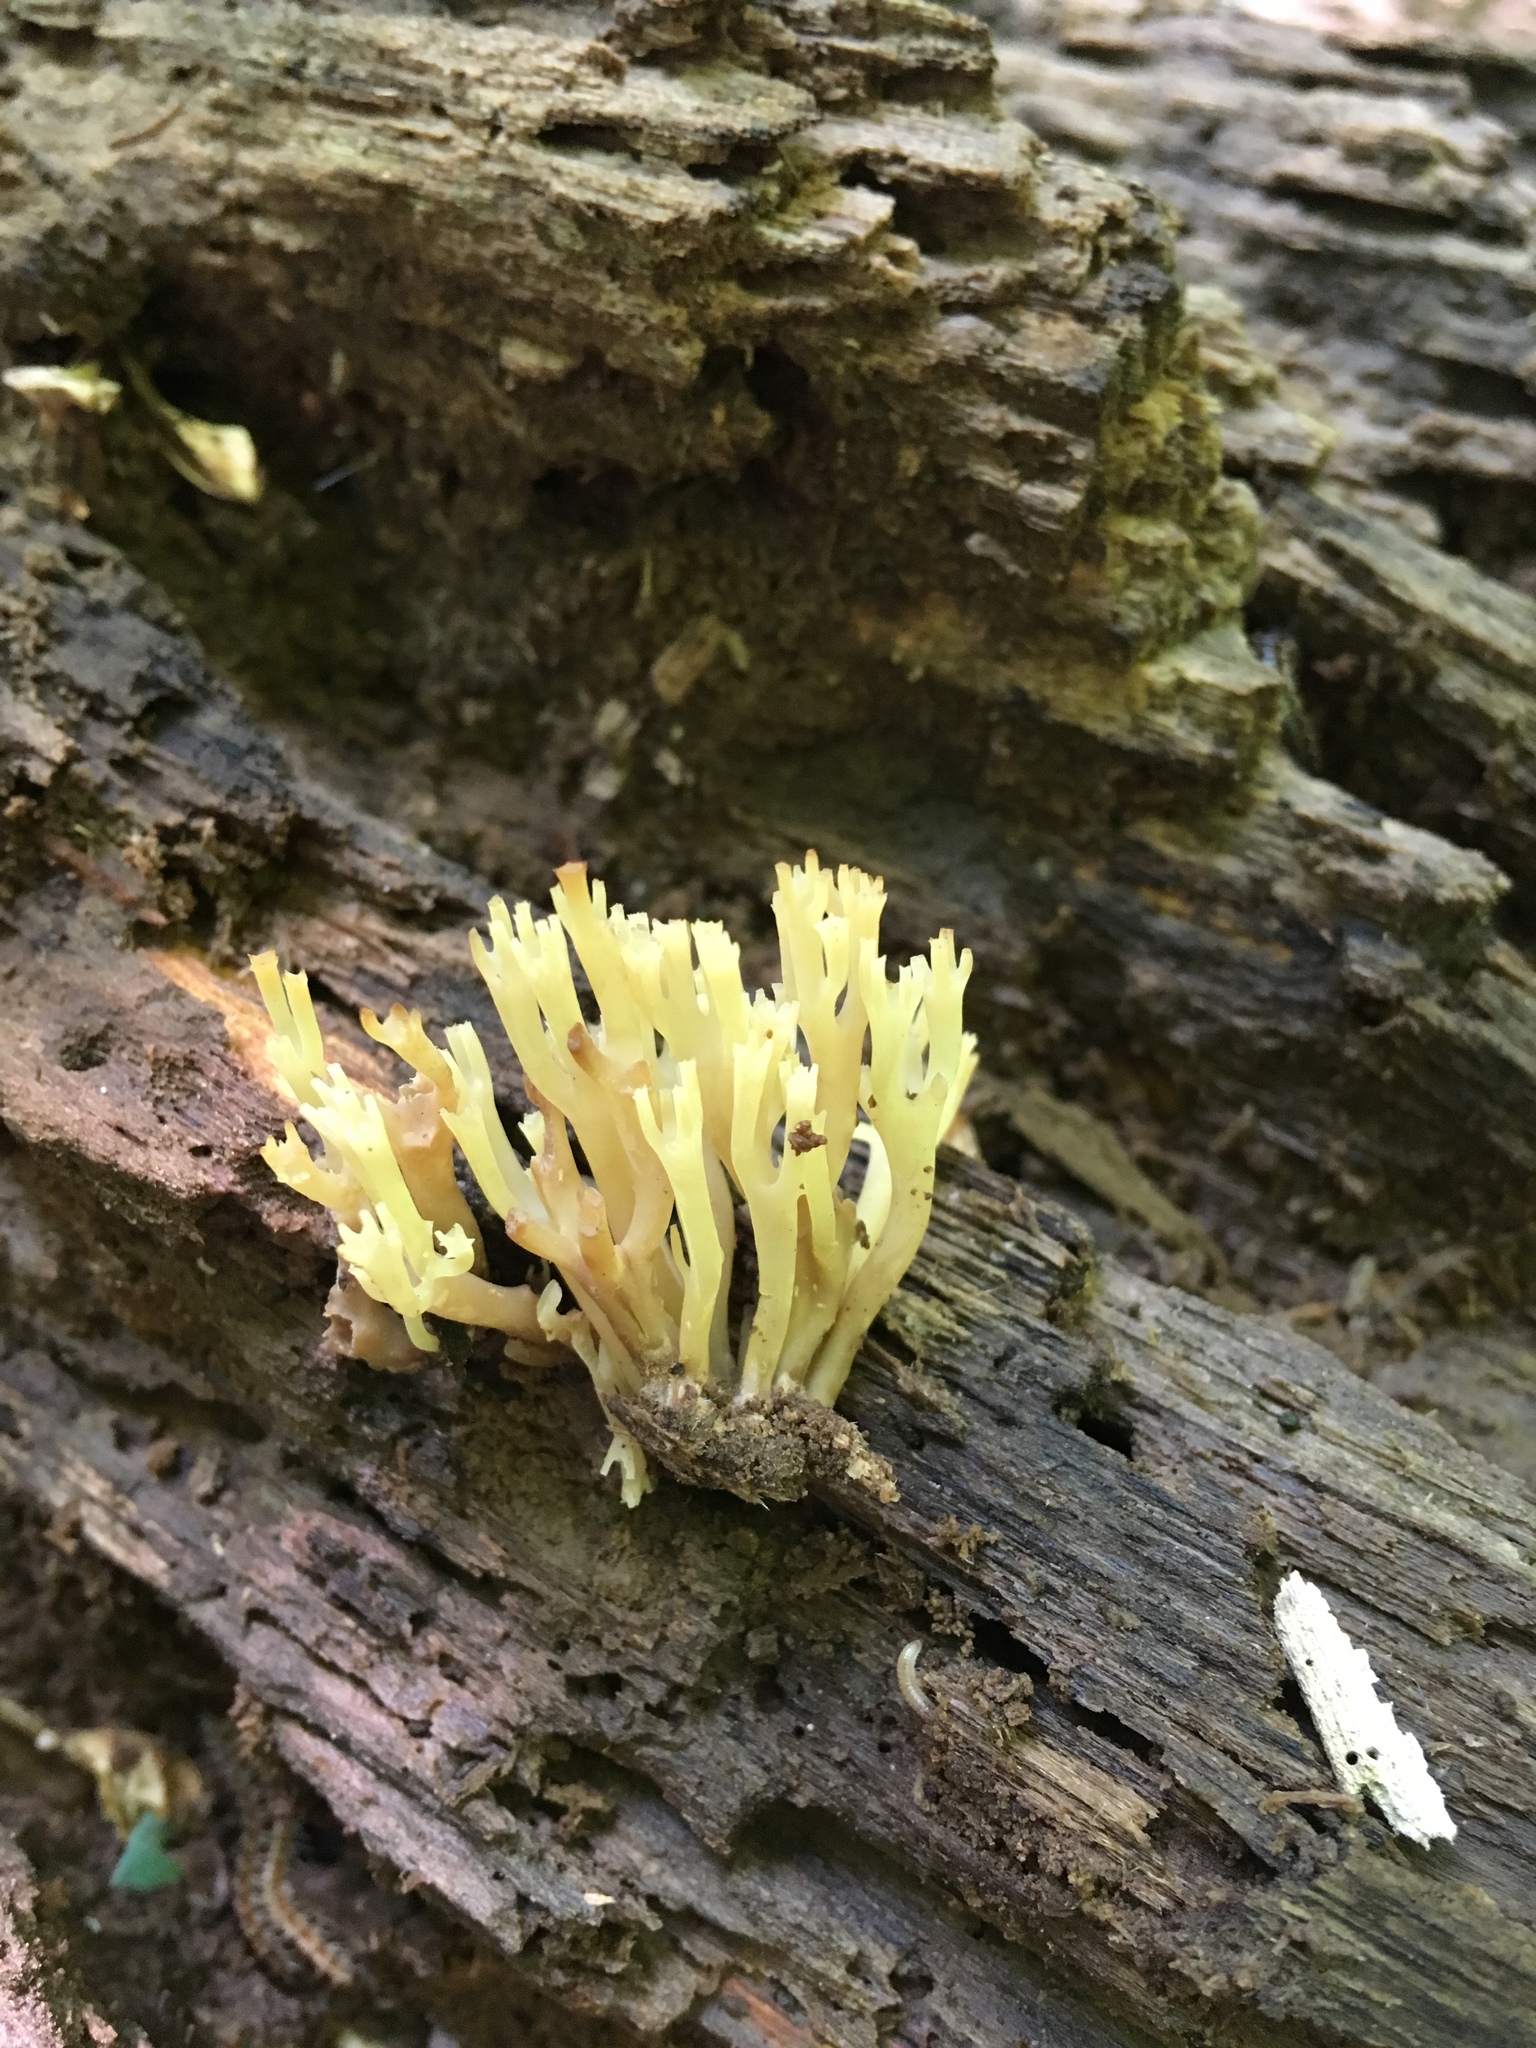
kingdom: Fungi
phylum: Basidiomycota
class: Agaricomycetes
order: Russulales
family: Auriscalpiaceae
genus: Artomyces
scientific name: Artomyces pyxidatus
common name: Crown-tipped coral fungus
